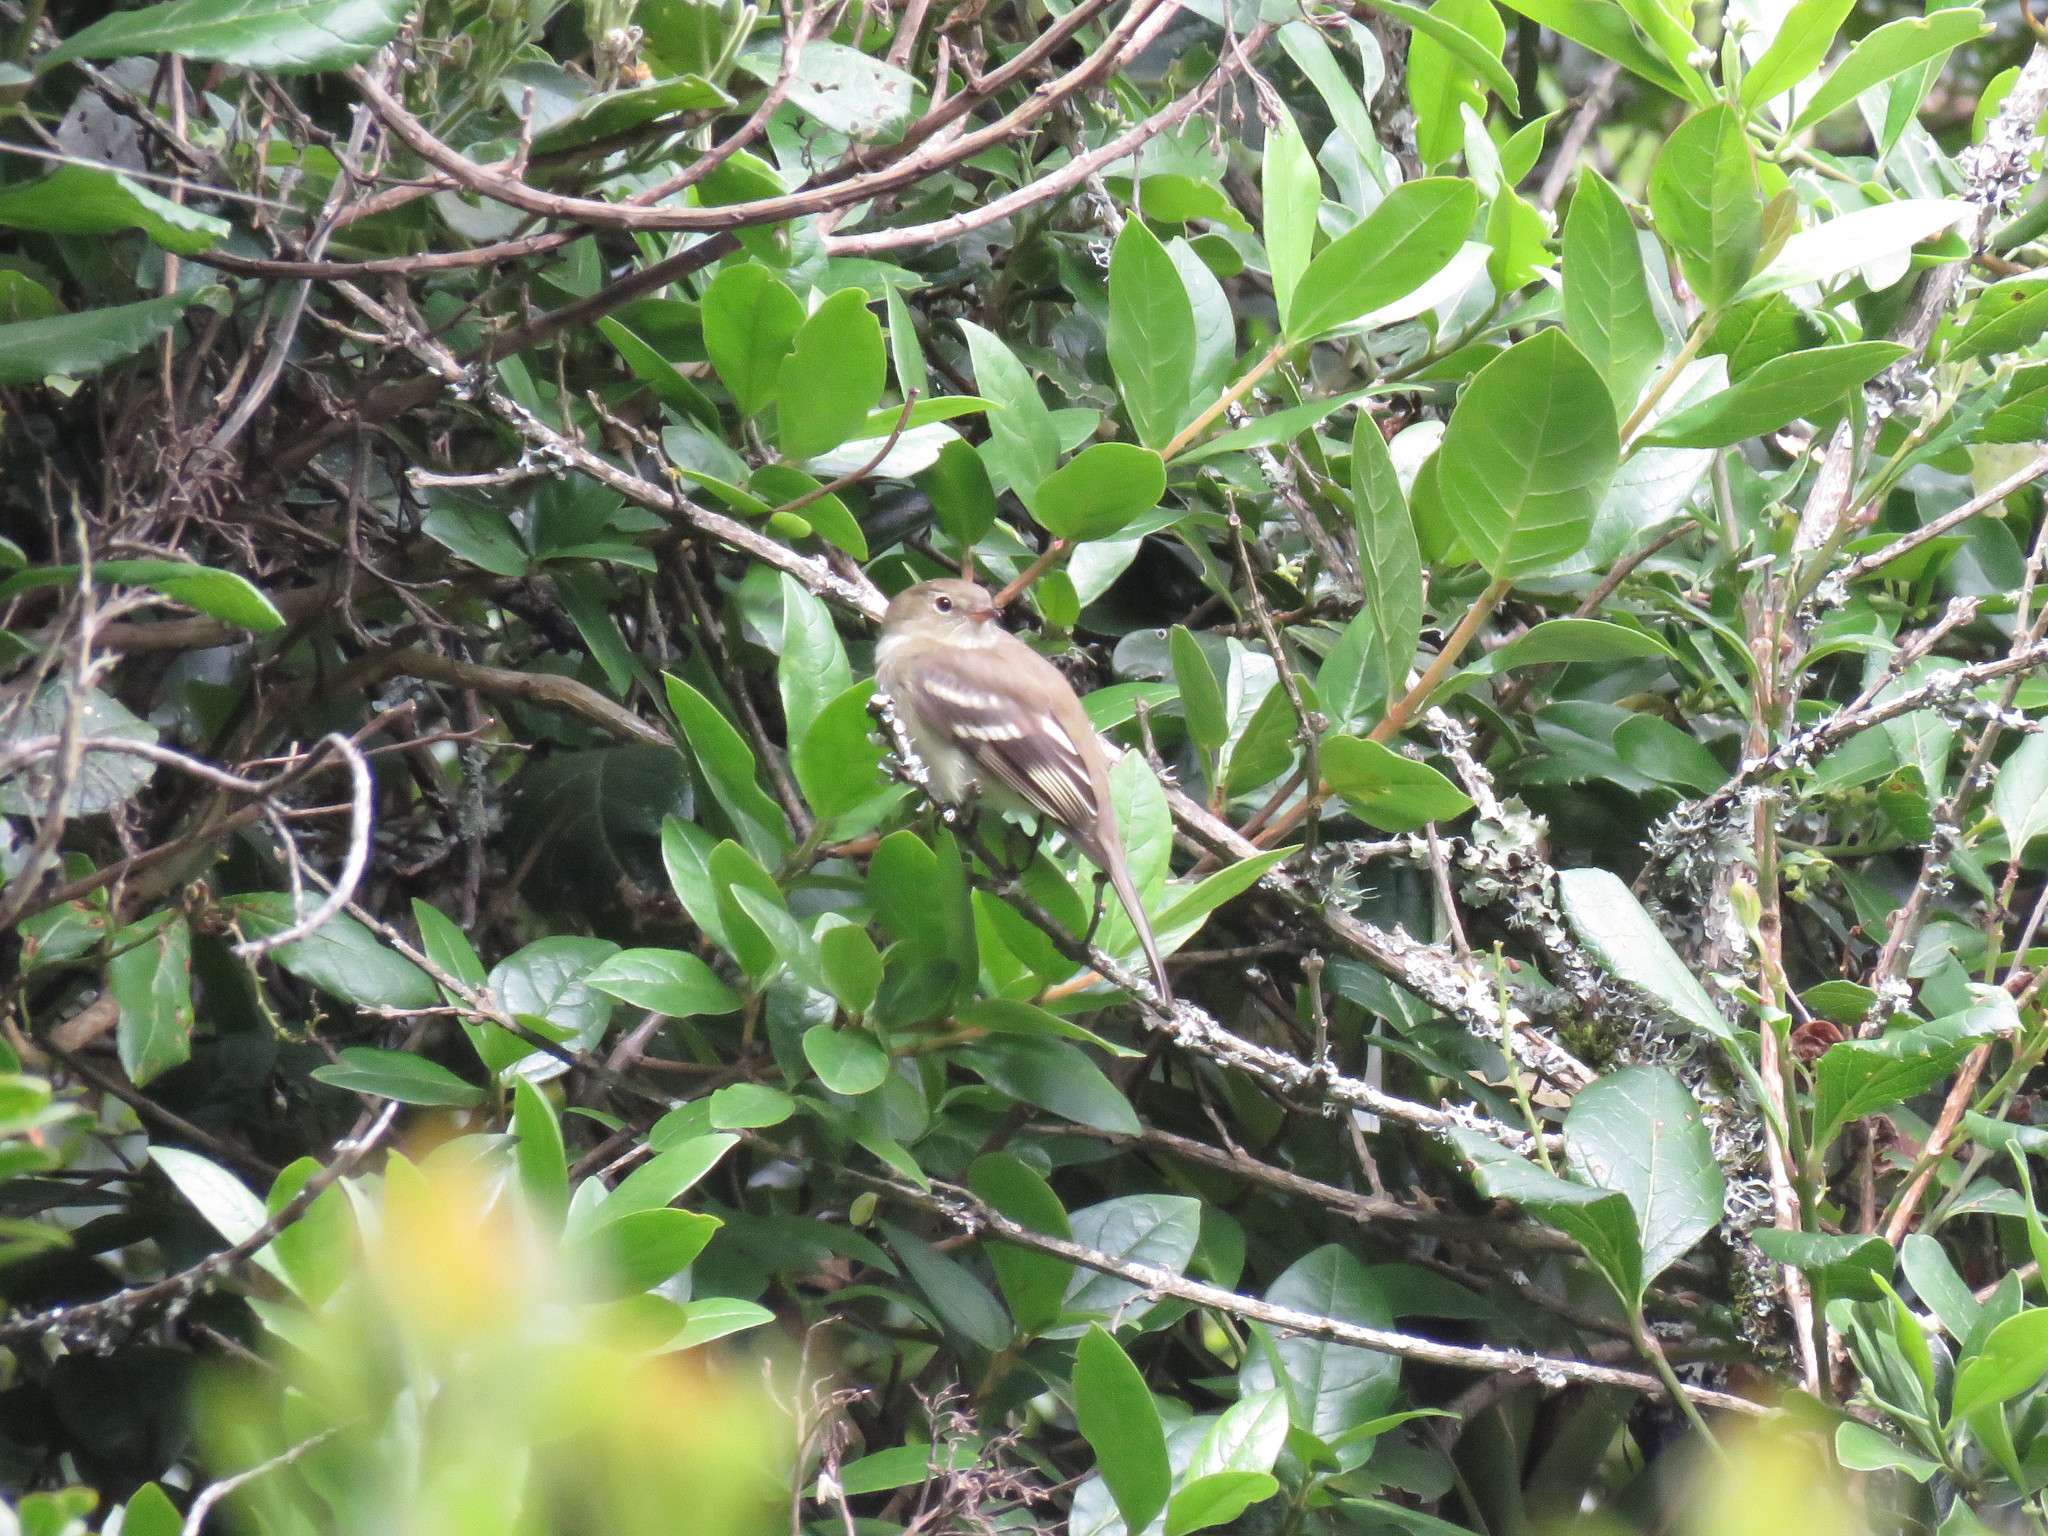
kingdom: Animalia
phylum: Chordata
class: Aves
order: Passeriformes
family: Tyrannidae
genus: Elaenia
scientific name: Elaenia frantzii
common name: Mountain elaenia
